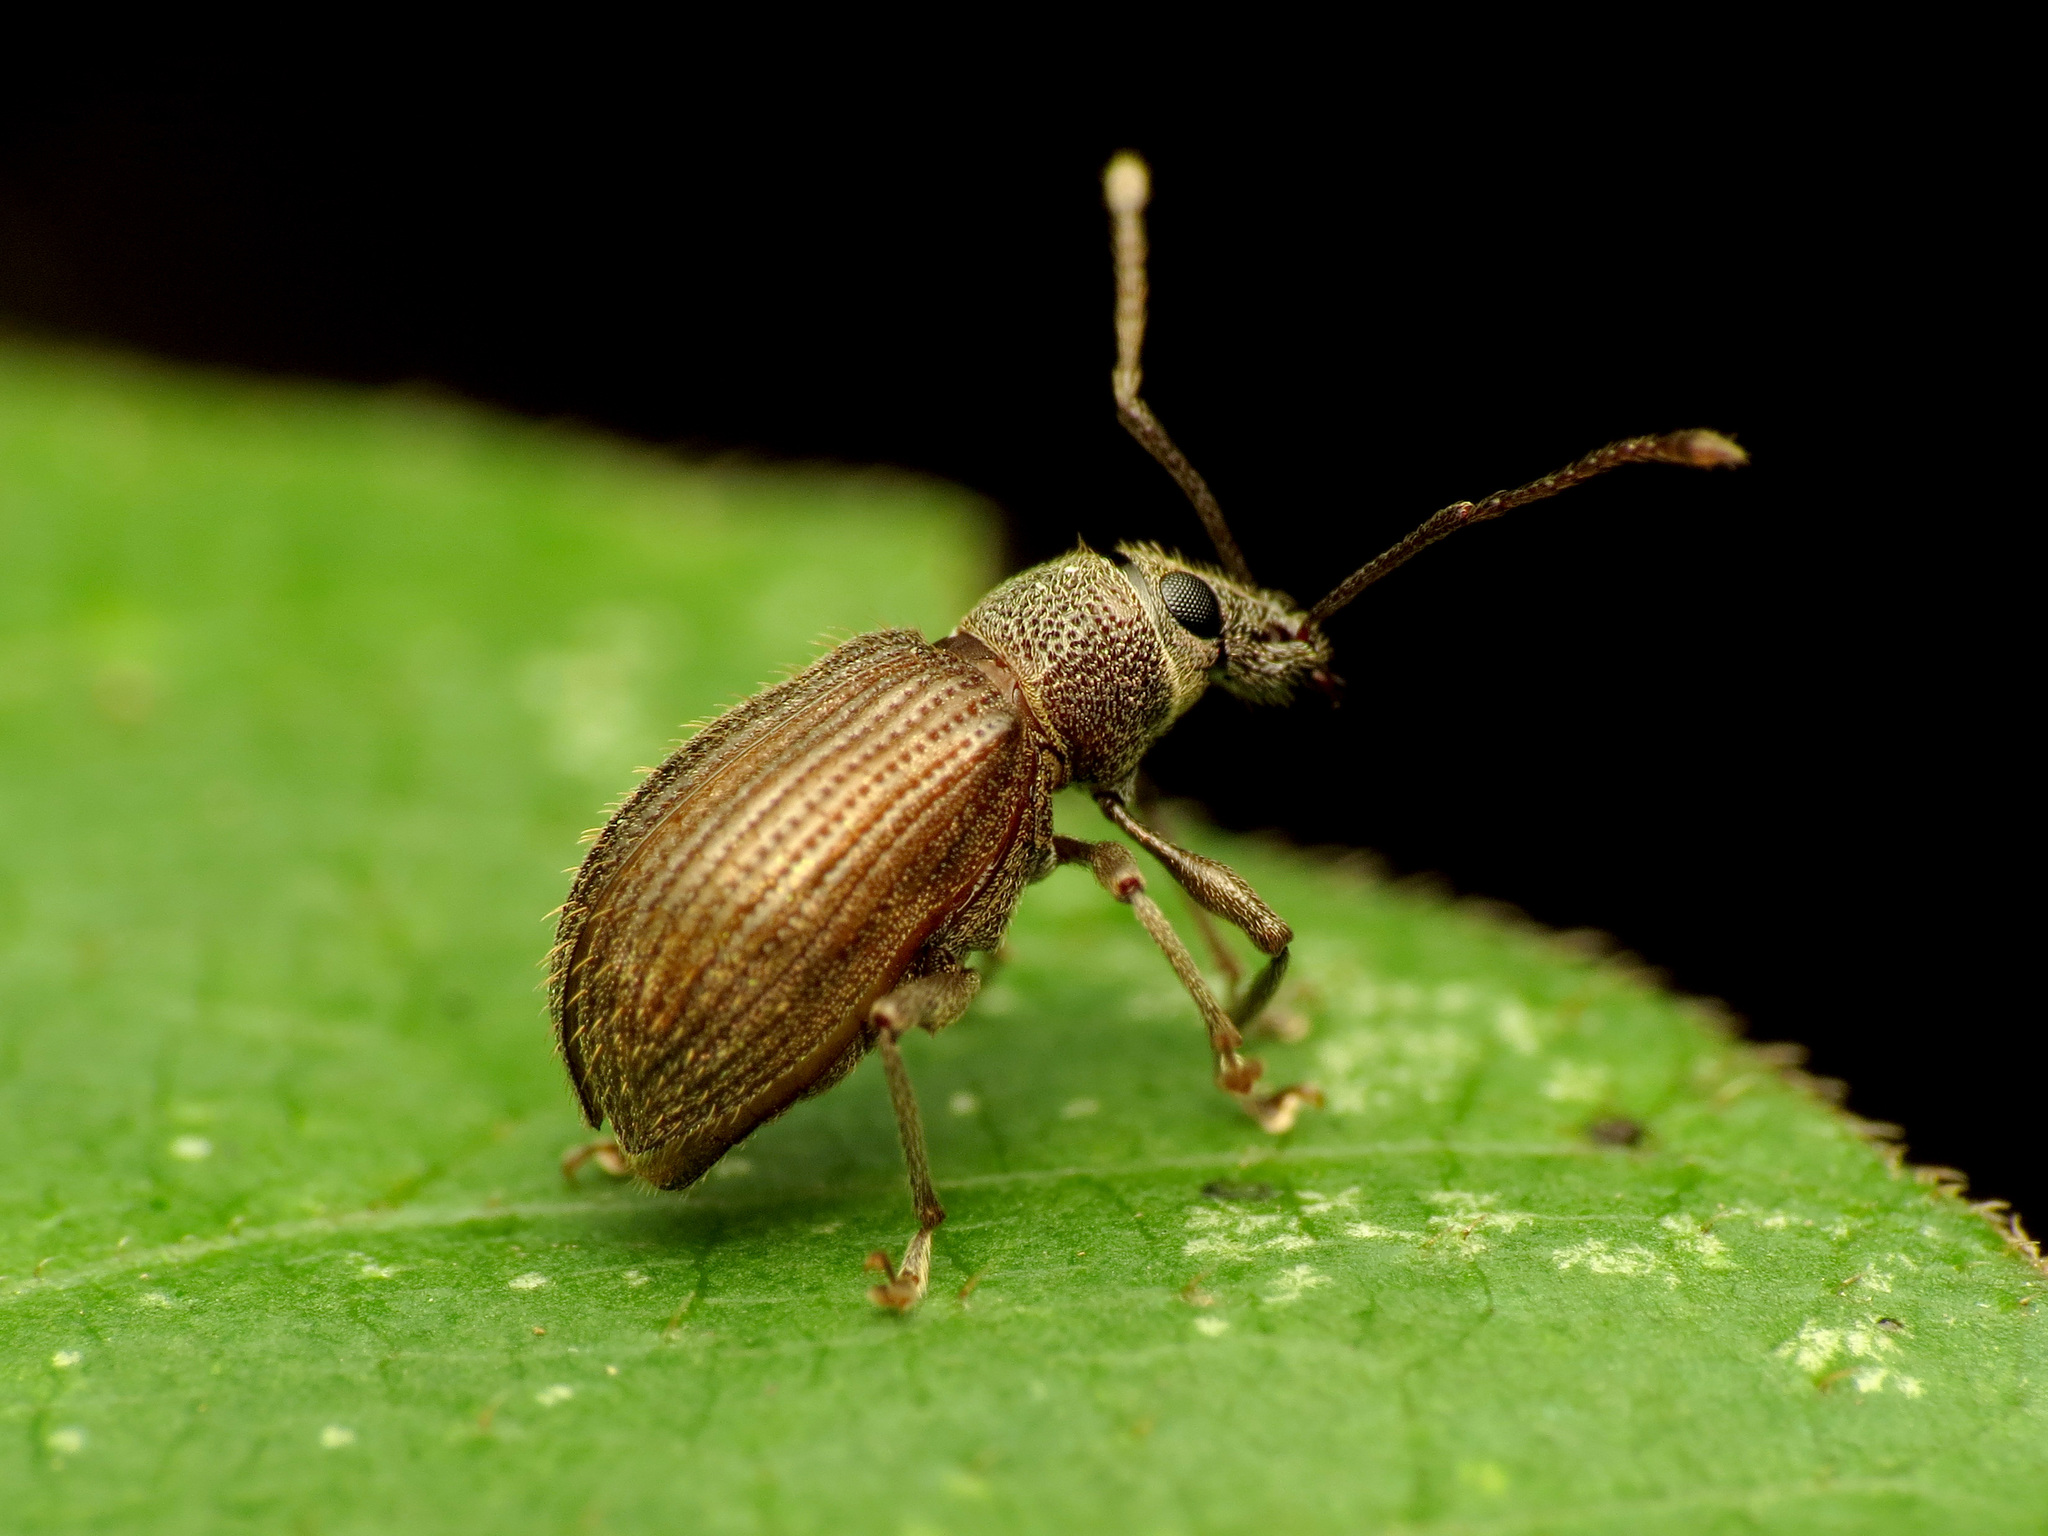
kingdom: Animalia
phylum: Arthropoda
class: Insecta
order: Coleoptera
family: Curculionidae
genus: Cyrtepistomus
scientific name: Cyrtepistomus castaneus
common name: Weevil
